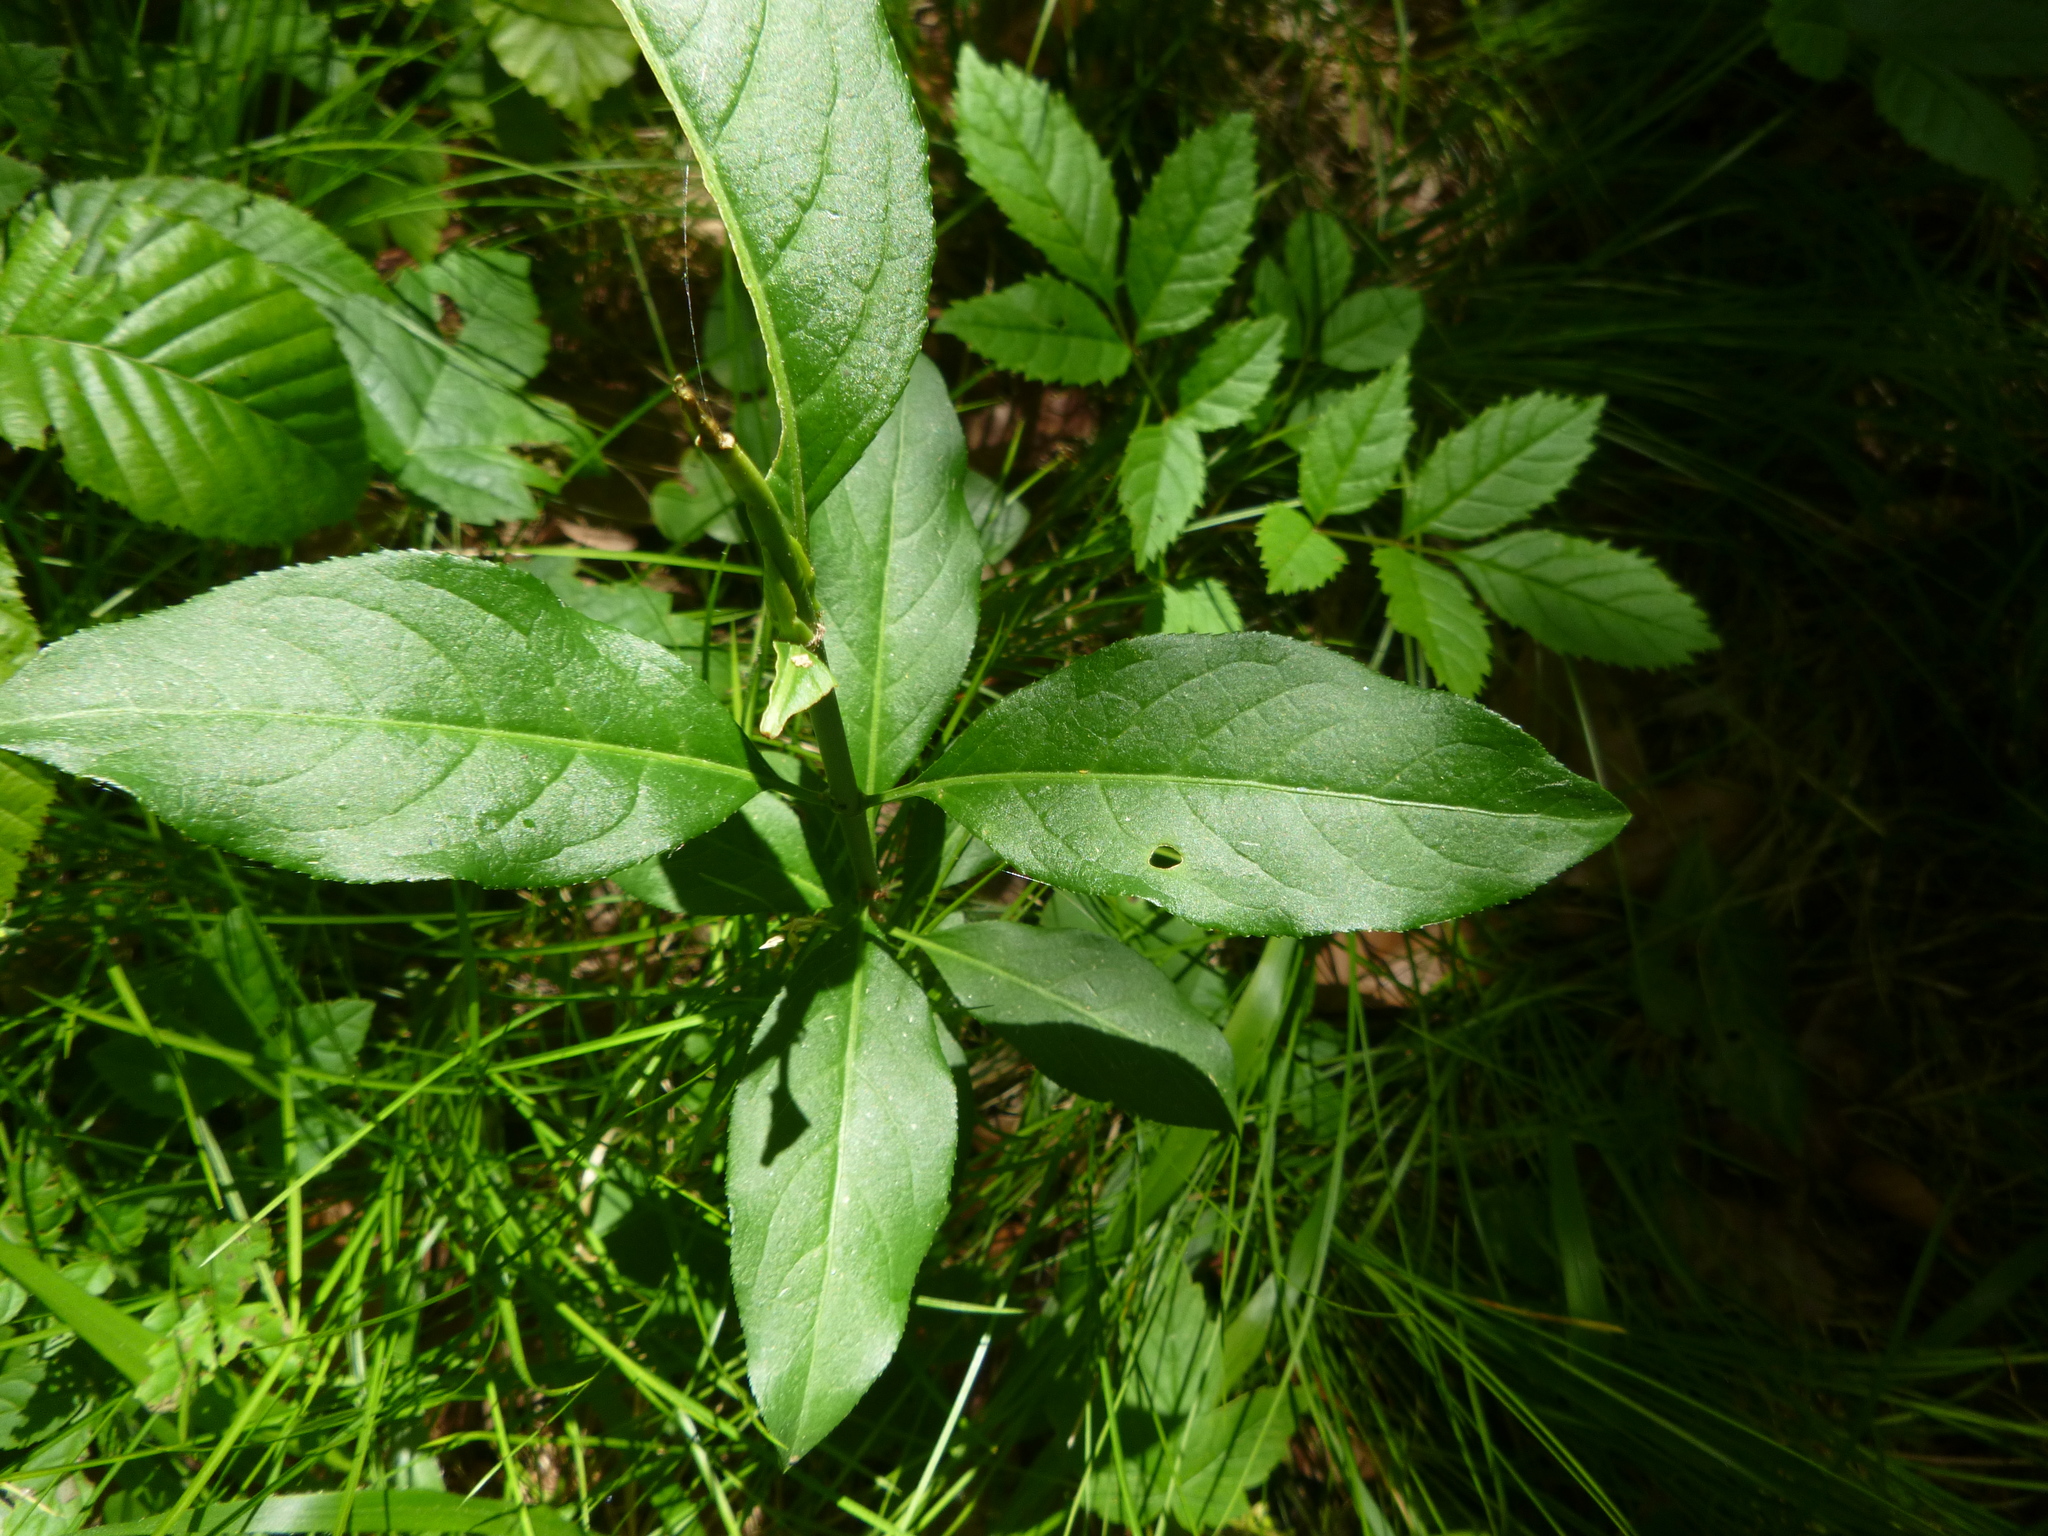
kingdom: Plantae
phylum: Tracheophyta
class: Magnoliopsida
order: Celastrales
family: Celastraceae
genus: Euonymus
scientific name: Euonymus europaeus
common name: Spindle
